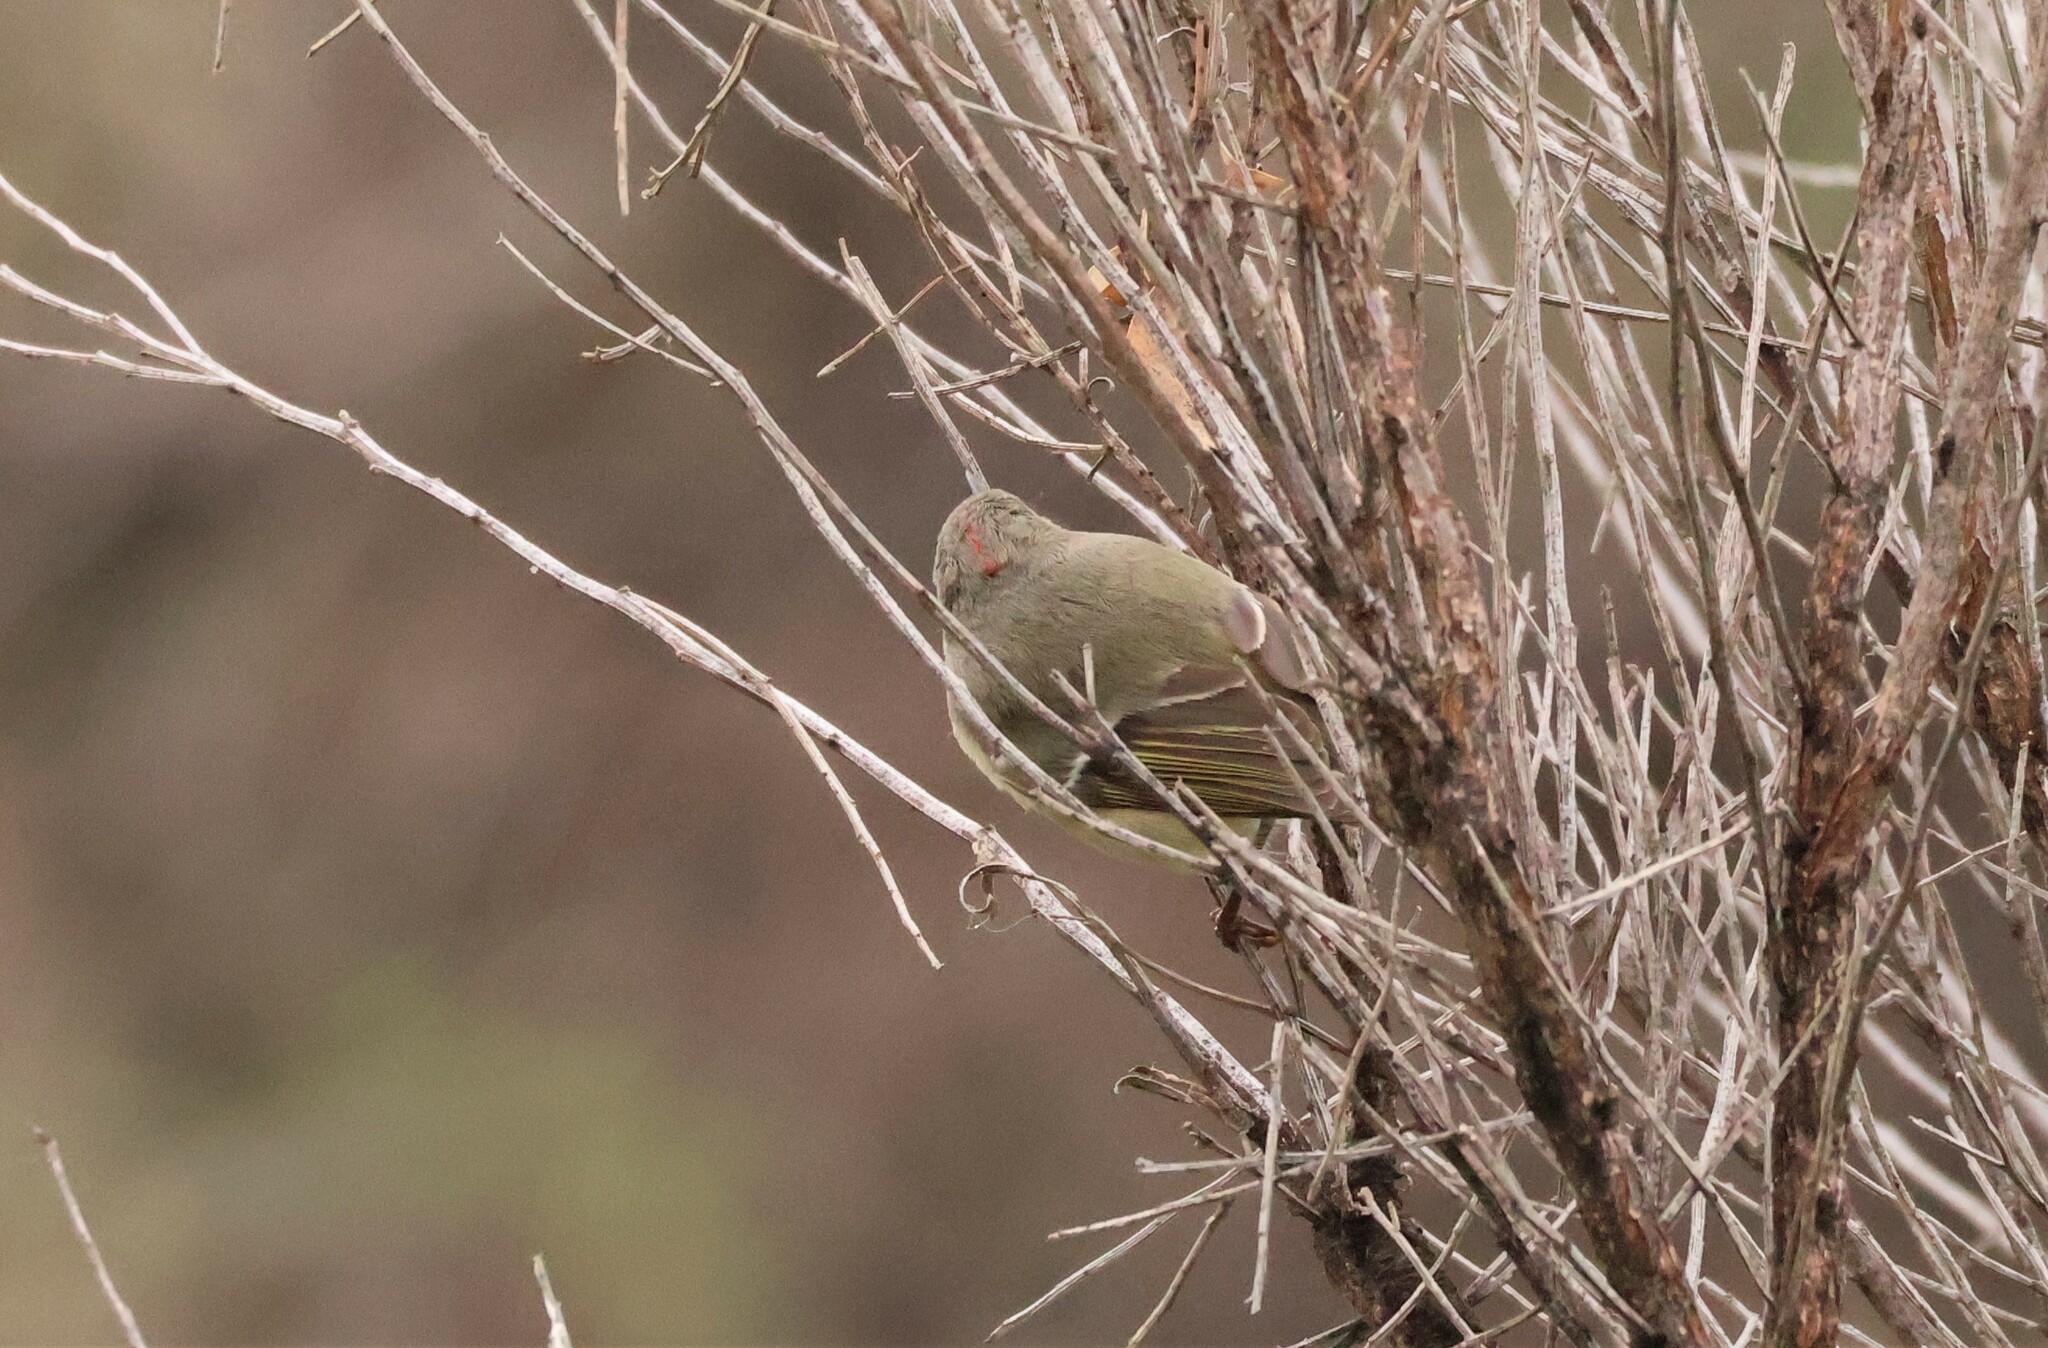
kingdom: Animalia
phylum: Chordata
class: Aves
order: Passeriformes
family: Regulidae
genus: Regulus
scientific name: Regulus calendula
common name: Ruby-crowned kinglet
